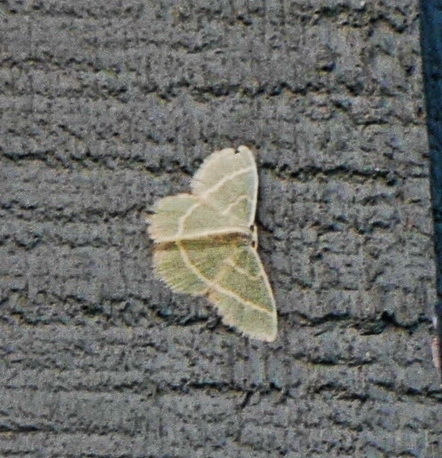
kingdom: Animalia
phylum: Arthropoda
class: Insecta
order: Lepidoptera
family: Geometridae
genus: Chlorochlamys
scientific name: Chlorochlamys chloroleucaria
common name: Blackberry looper
